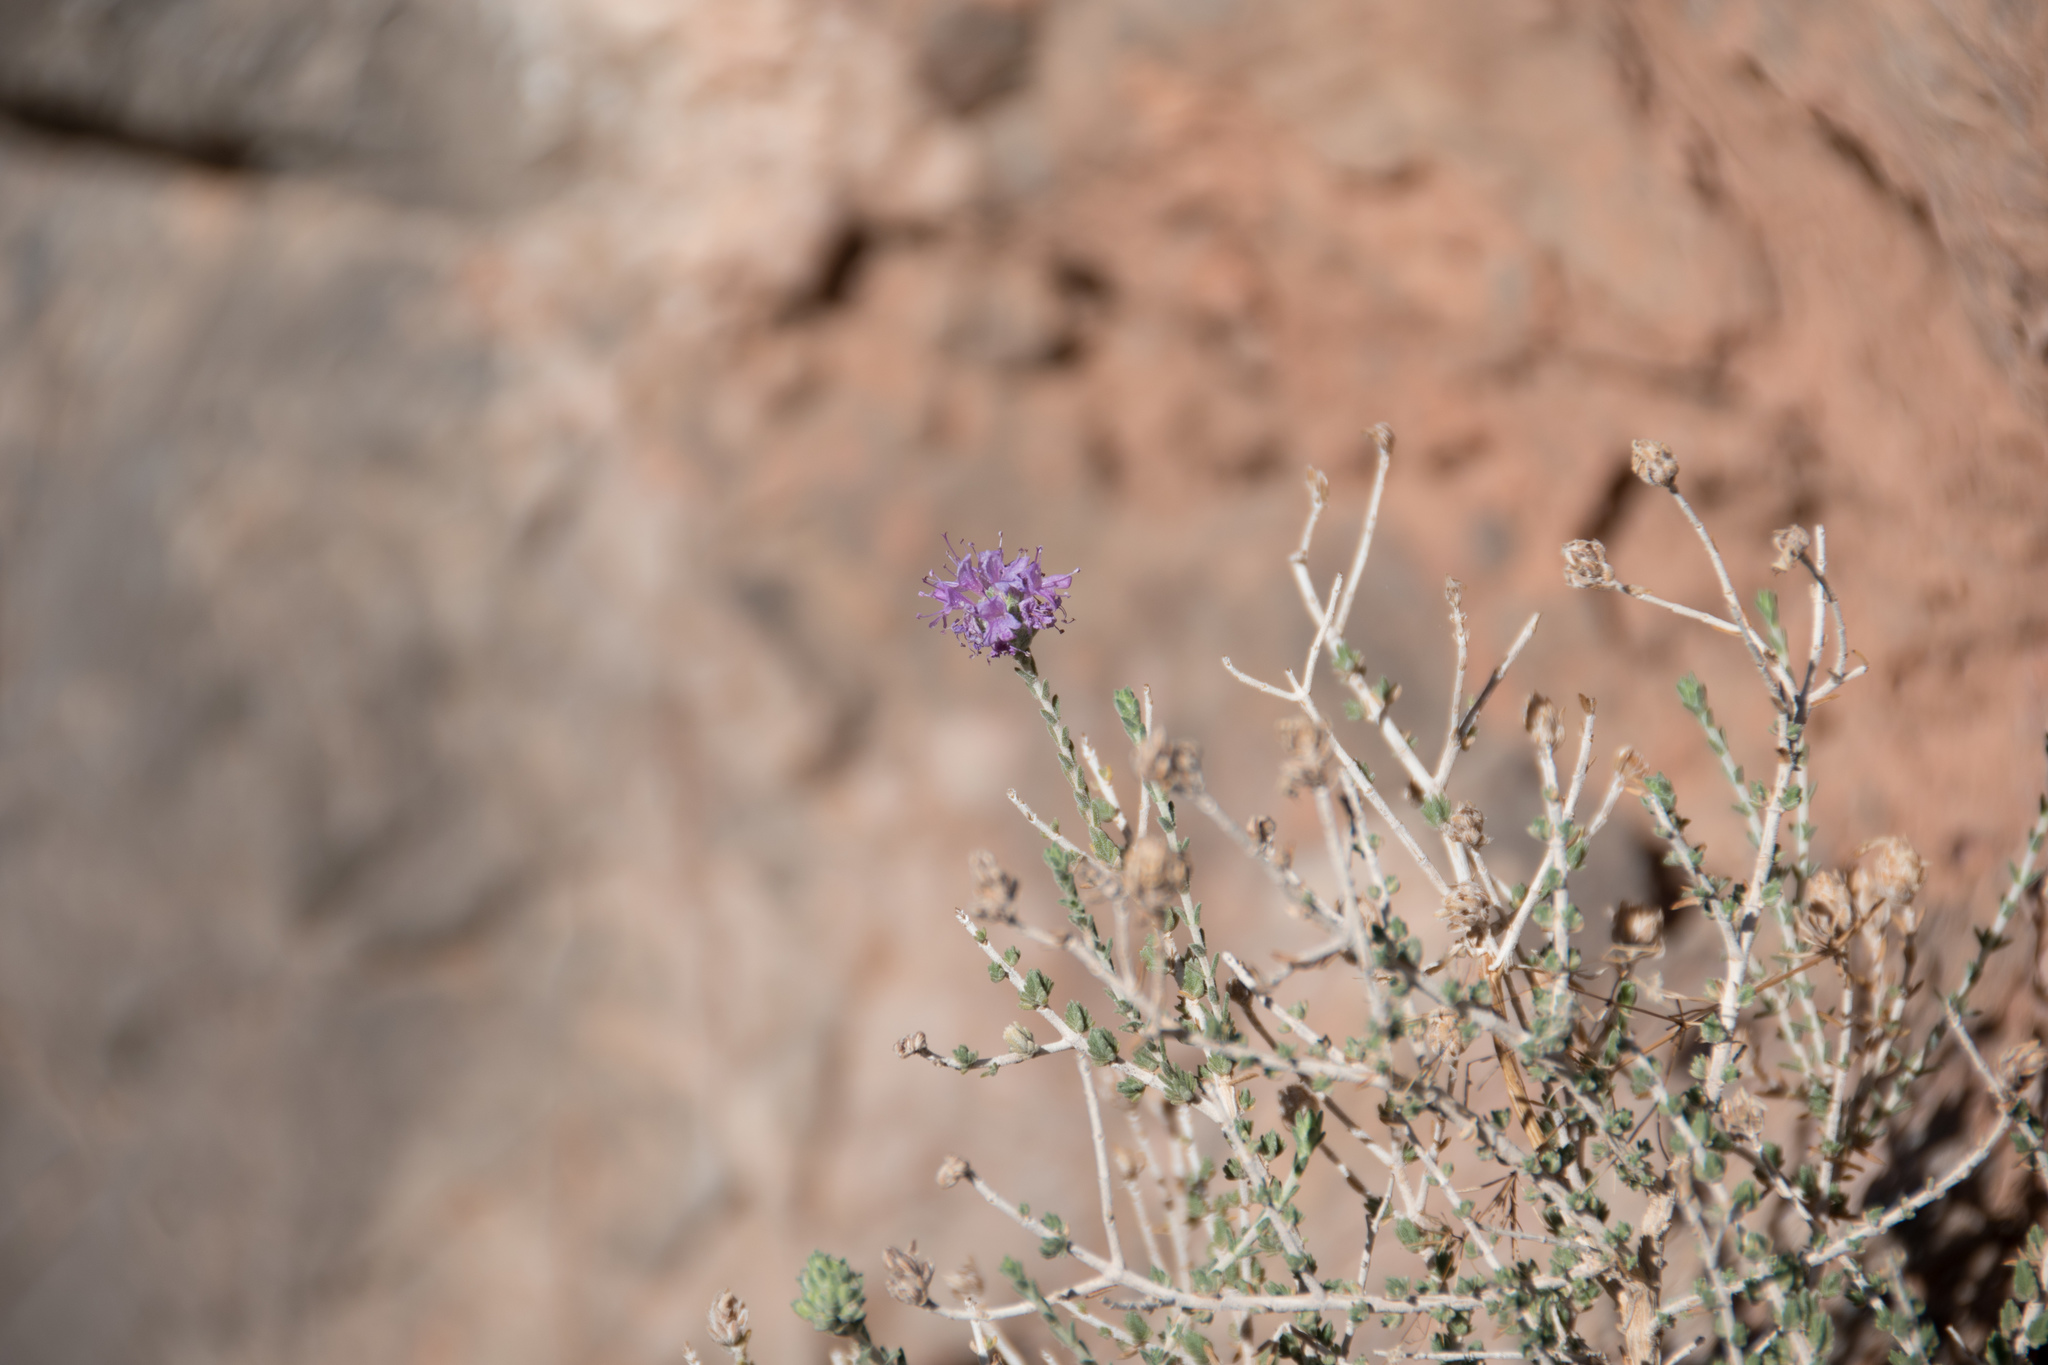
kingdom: Plantae
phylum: Tracheophyta
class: Magnoliopsida
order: Lamiales
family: Lamiaceae
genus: Thymbra
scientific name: Thymbra capitata
